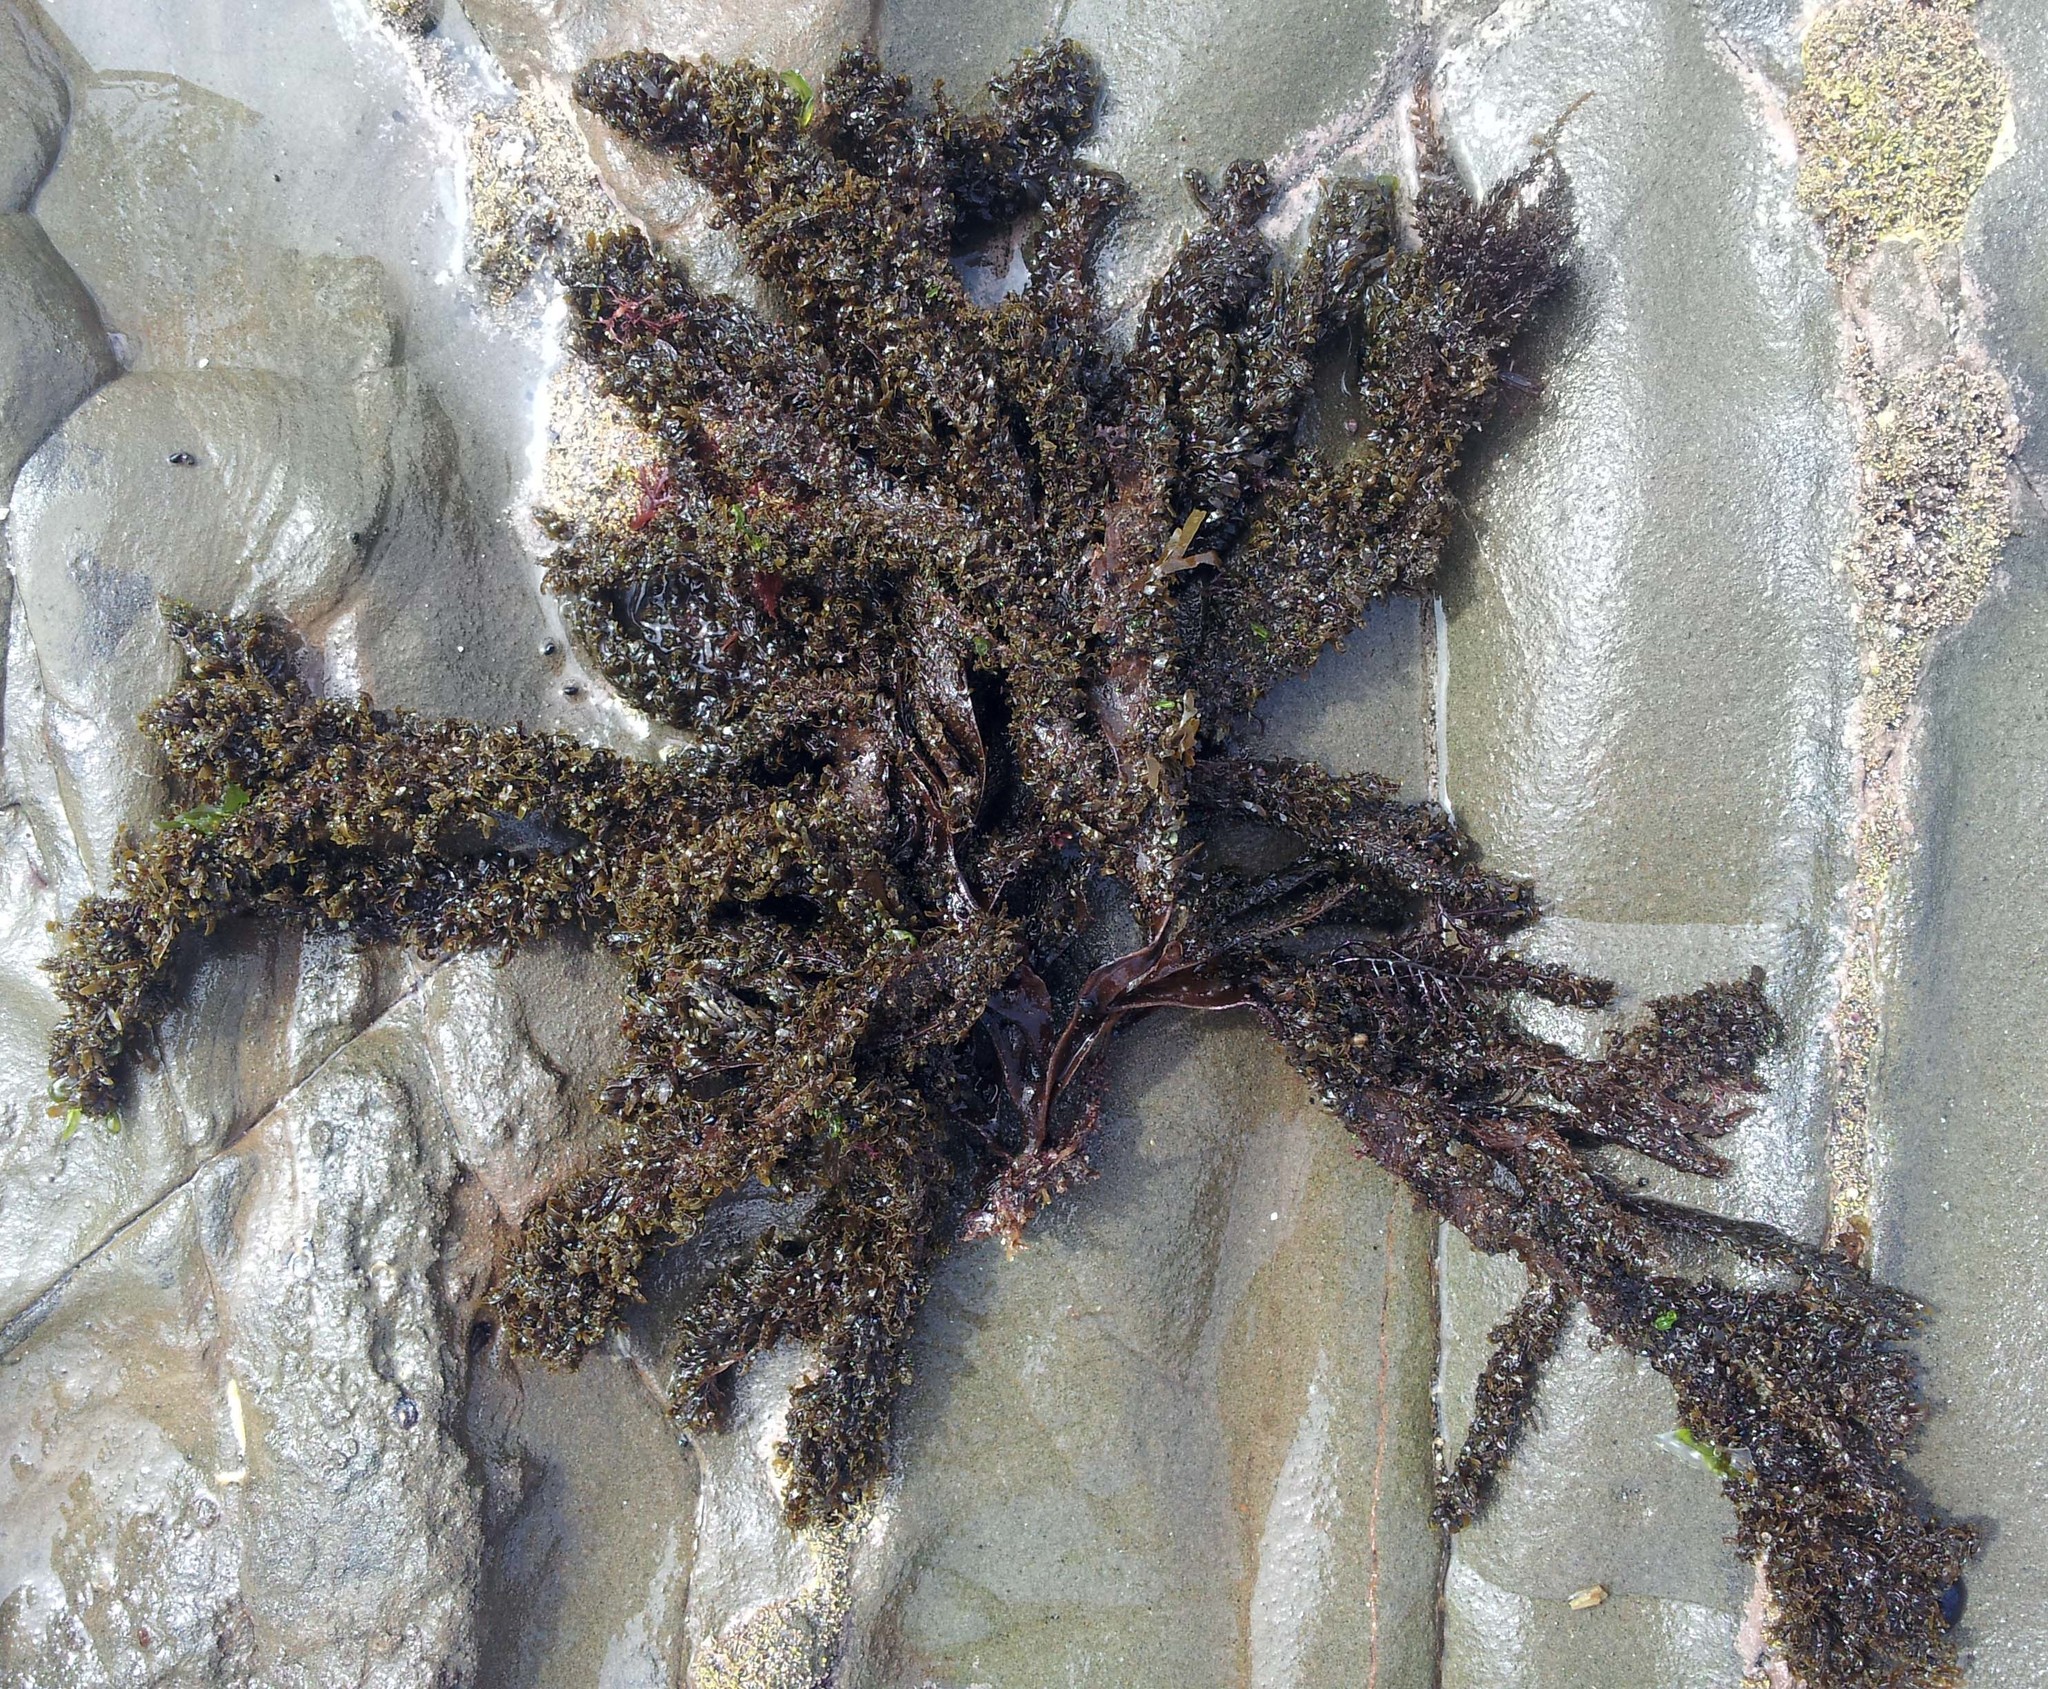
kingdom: Chromista
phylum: Ochrophyta
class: Phaeophyceae
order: Dictyotales
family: Dictyotaceae
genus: Dictyota
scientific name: Dictyota kunthii
